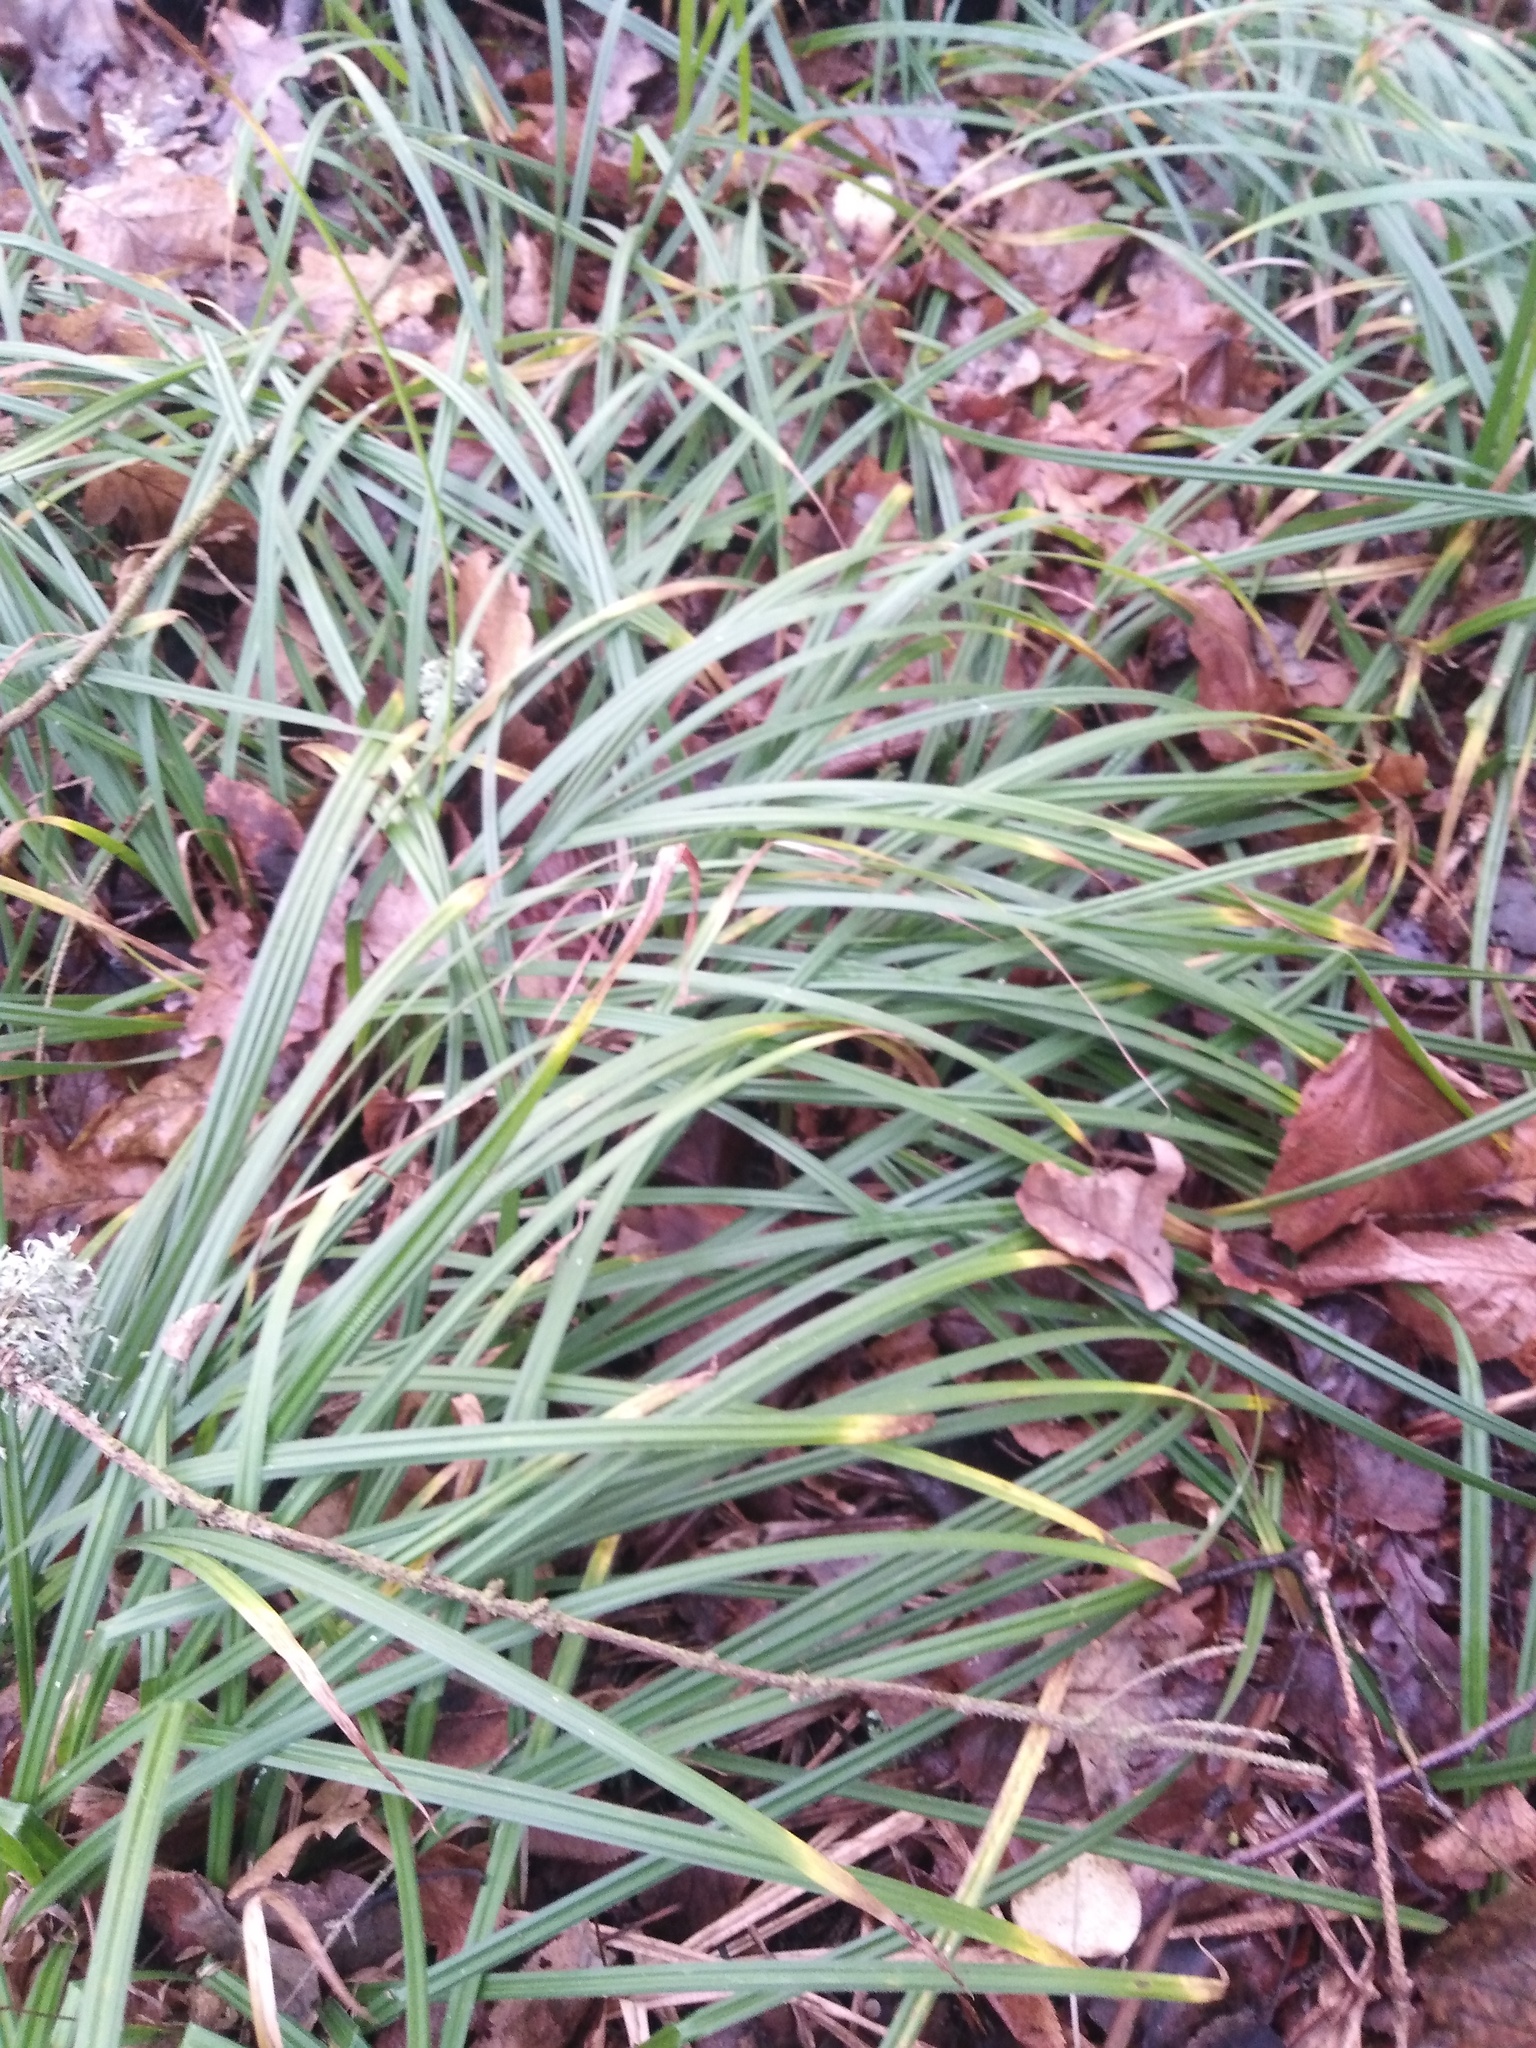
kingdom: Plantae
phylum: Tracheophyta
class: Liliopsida
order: Poales
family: Cyperaceae
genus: Carex
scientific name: Carex pilosa
